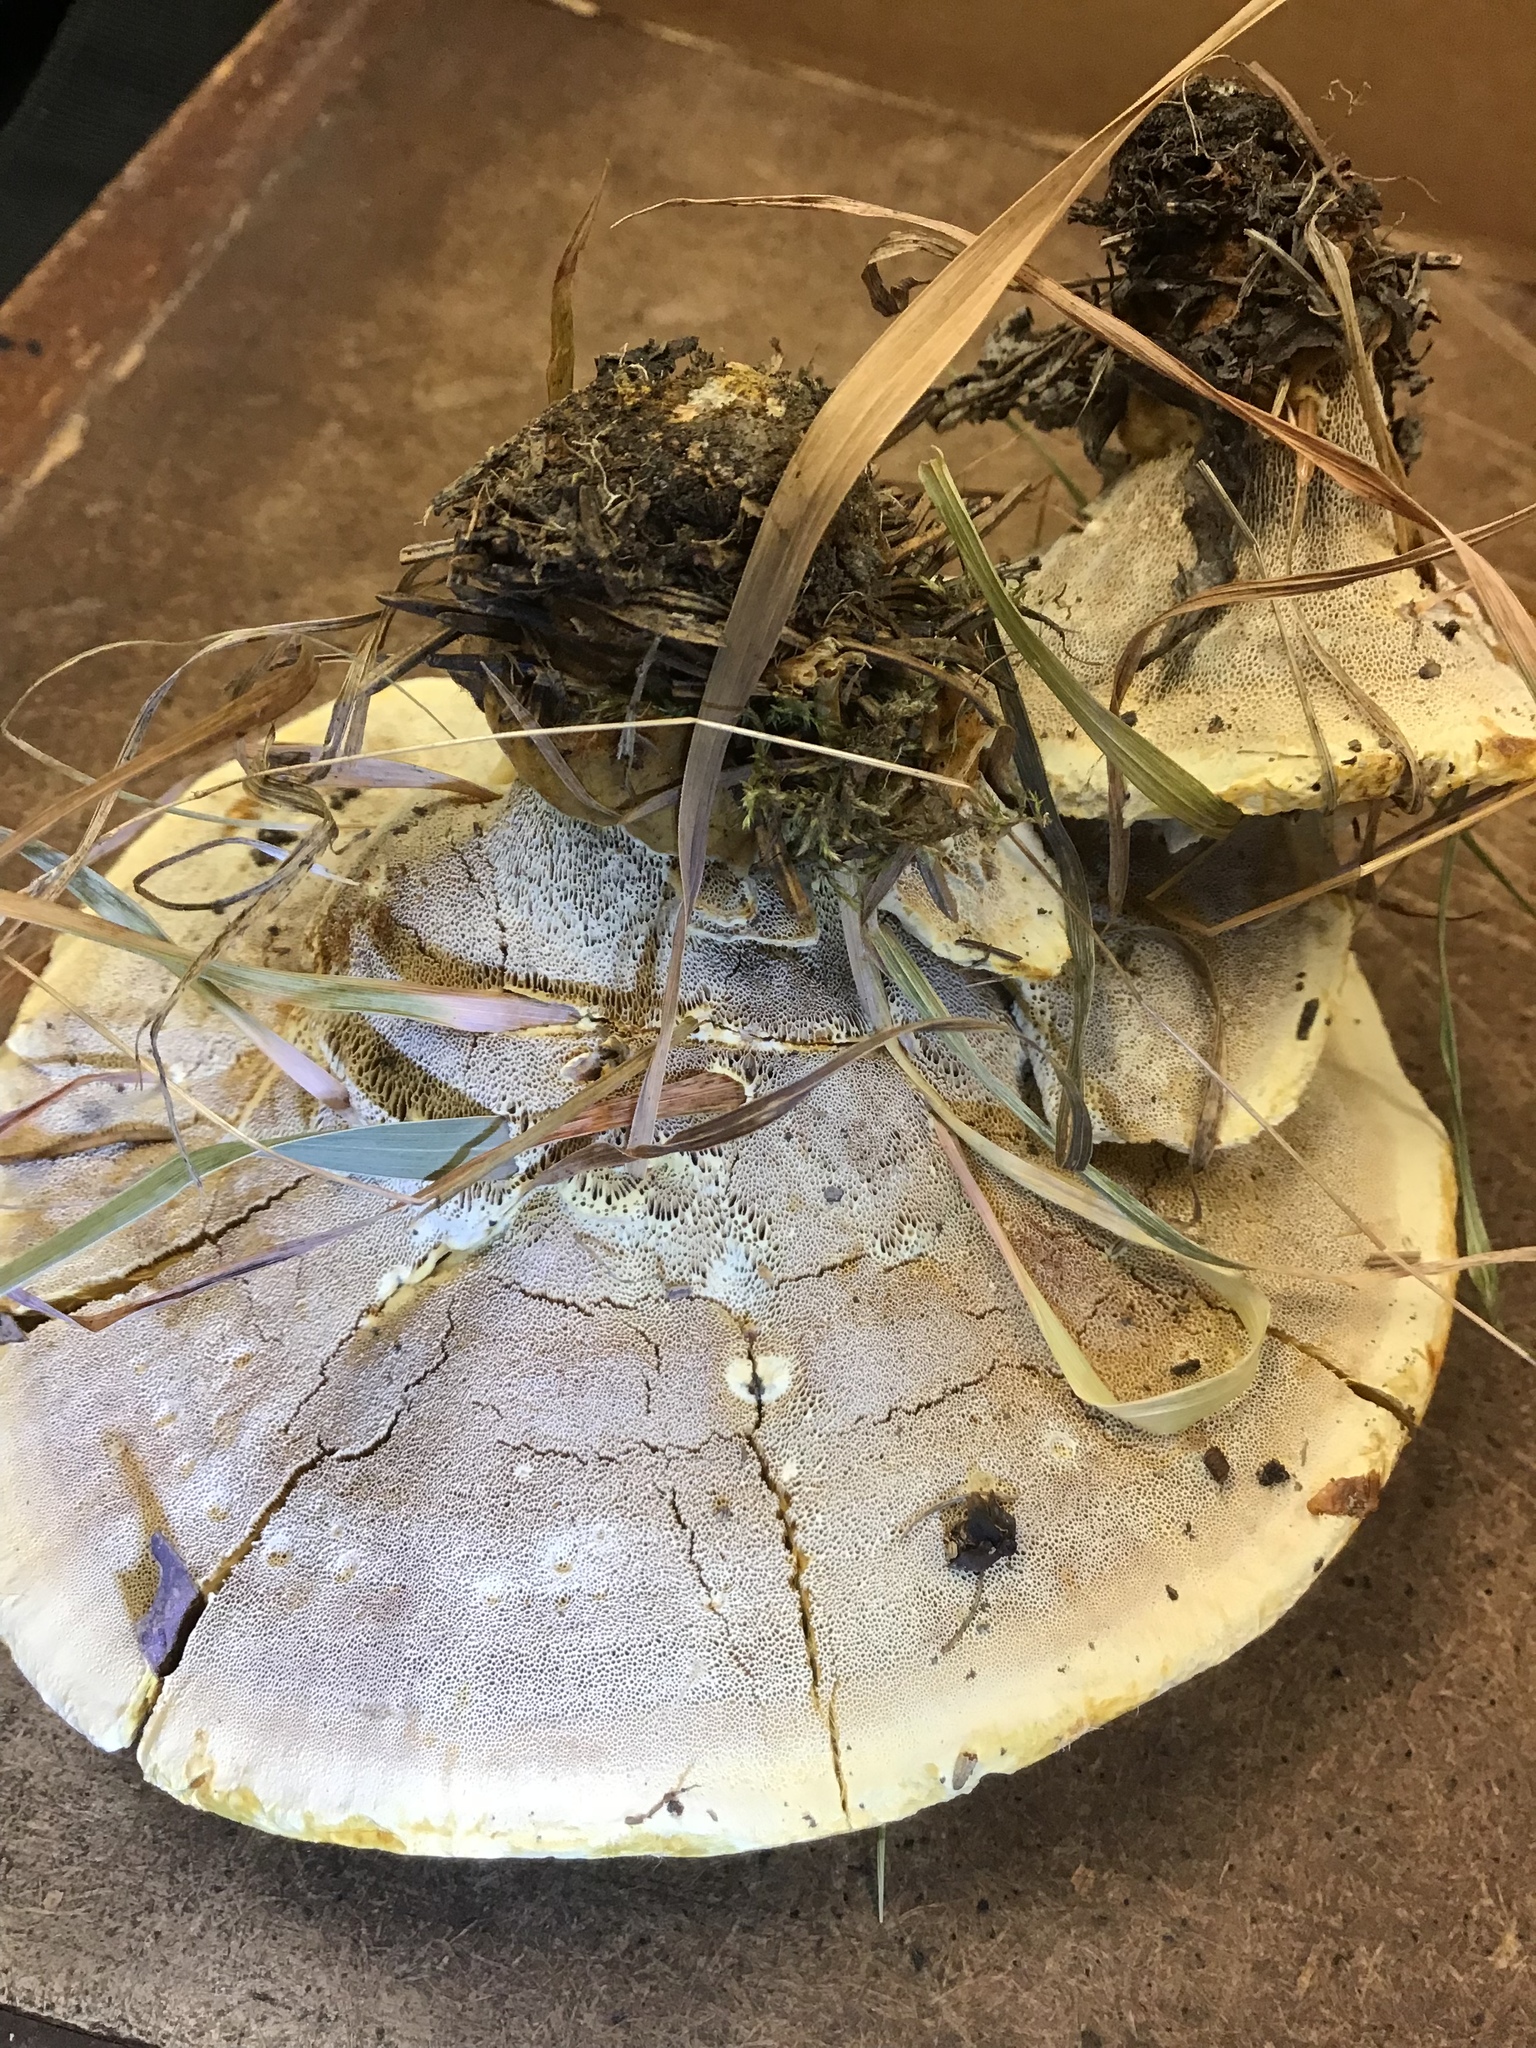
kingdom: Fungi
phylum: Basidiomycota
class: Agaricomycetes
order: Hymenochaetales
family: Hymenochaetaceae
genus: Onnia
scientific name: Onnia tomentosa
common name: Velvet rosette
